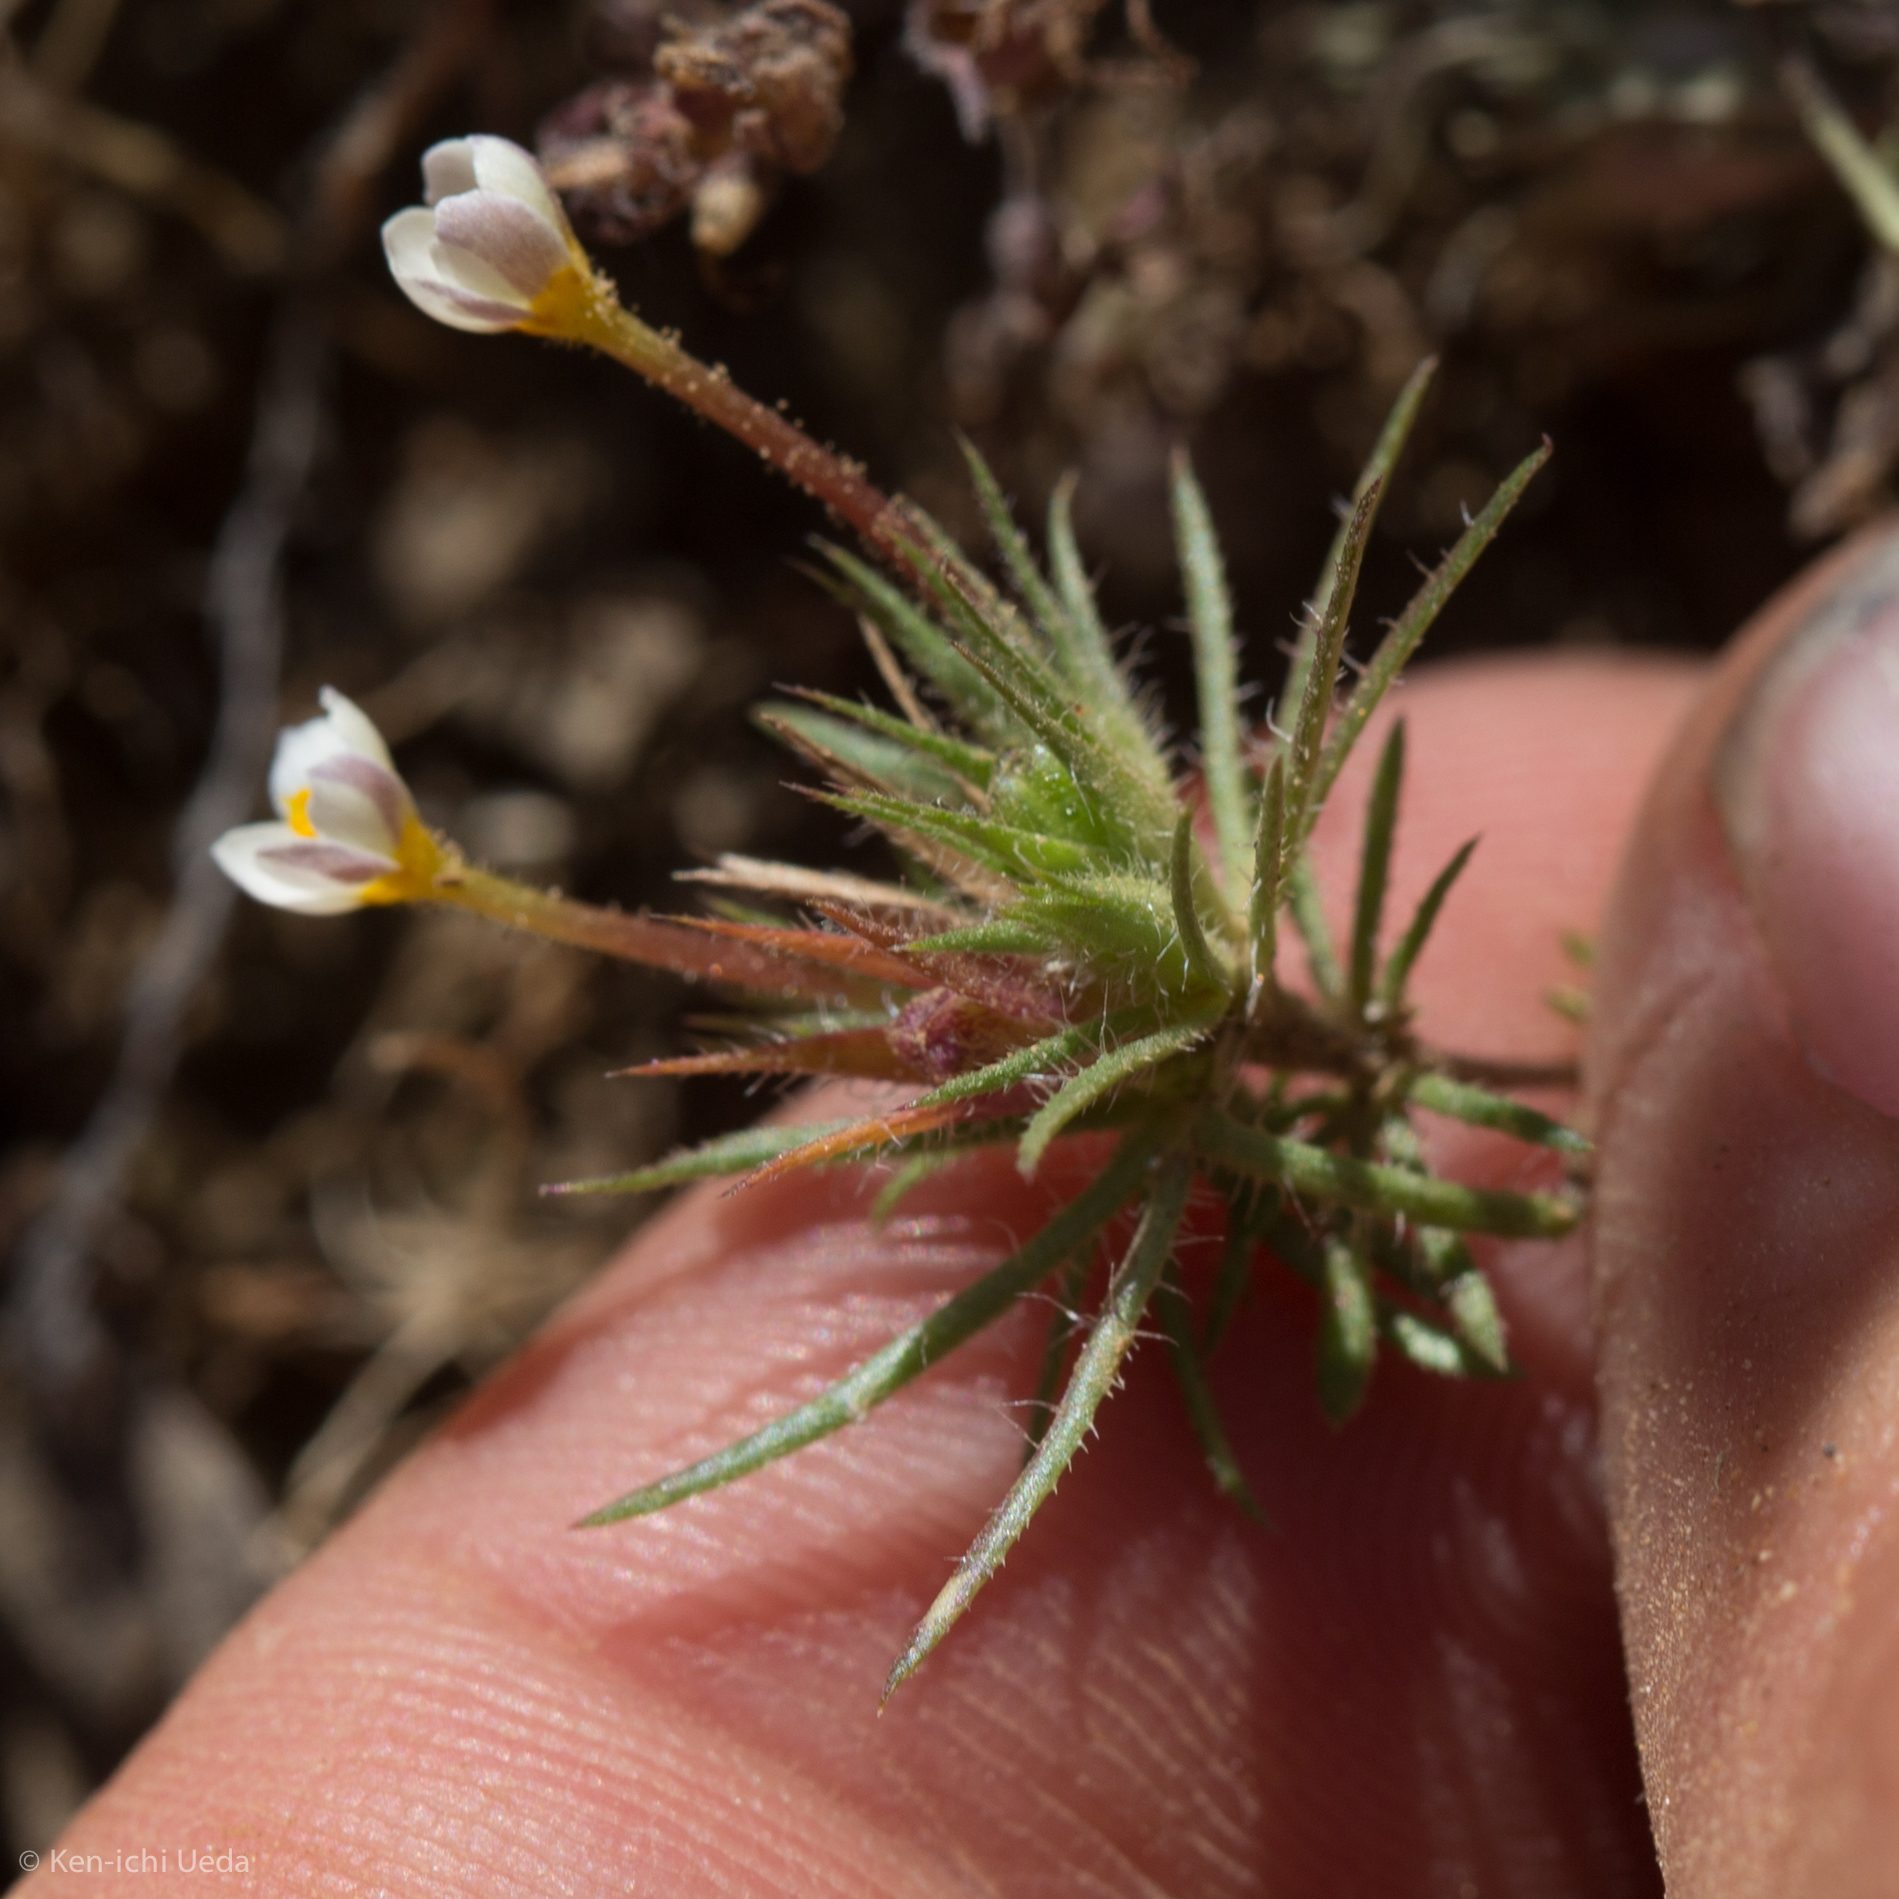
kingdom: Plantae
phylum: Tracheophyta
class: Magnoliopsida
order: Ericales
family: Polemoniaceae
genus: Leptosiphon
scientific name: Leptosiphon bicolor
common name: True babystars
